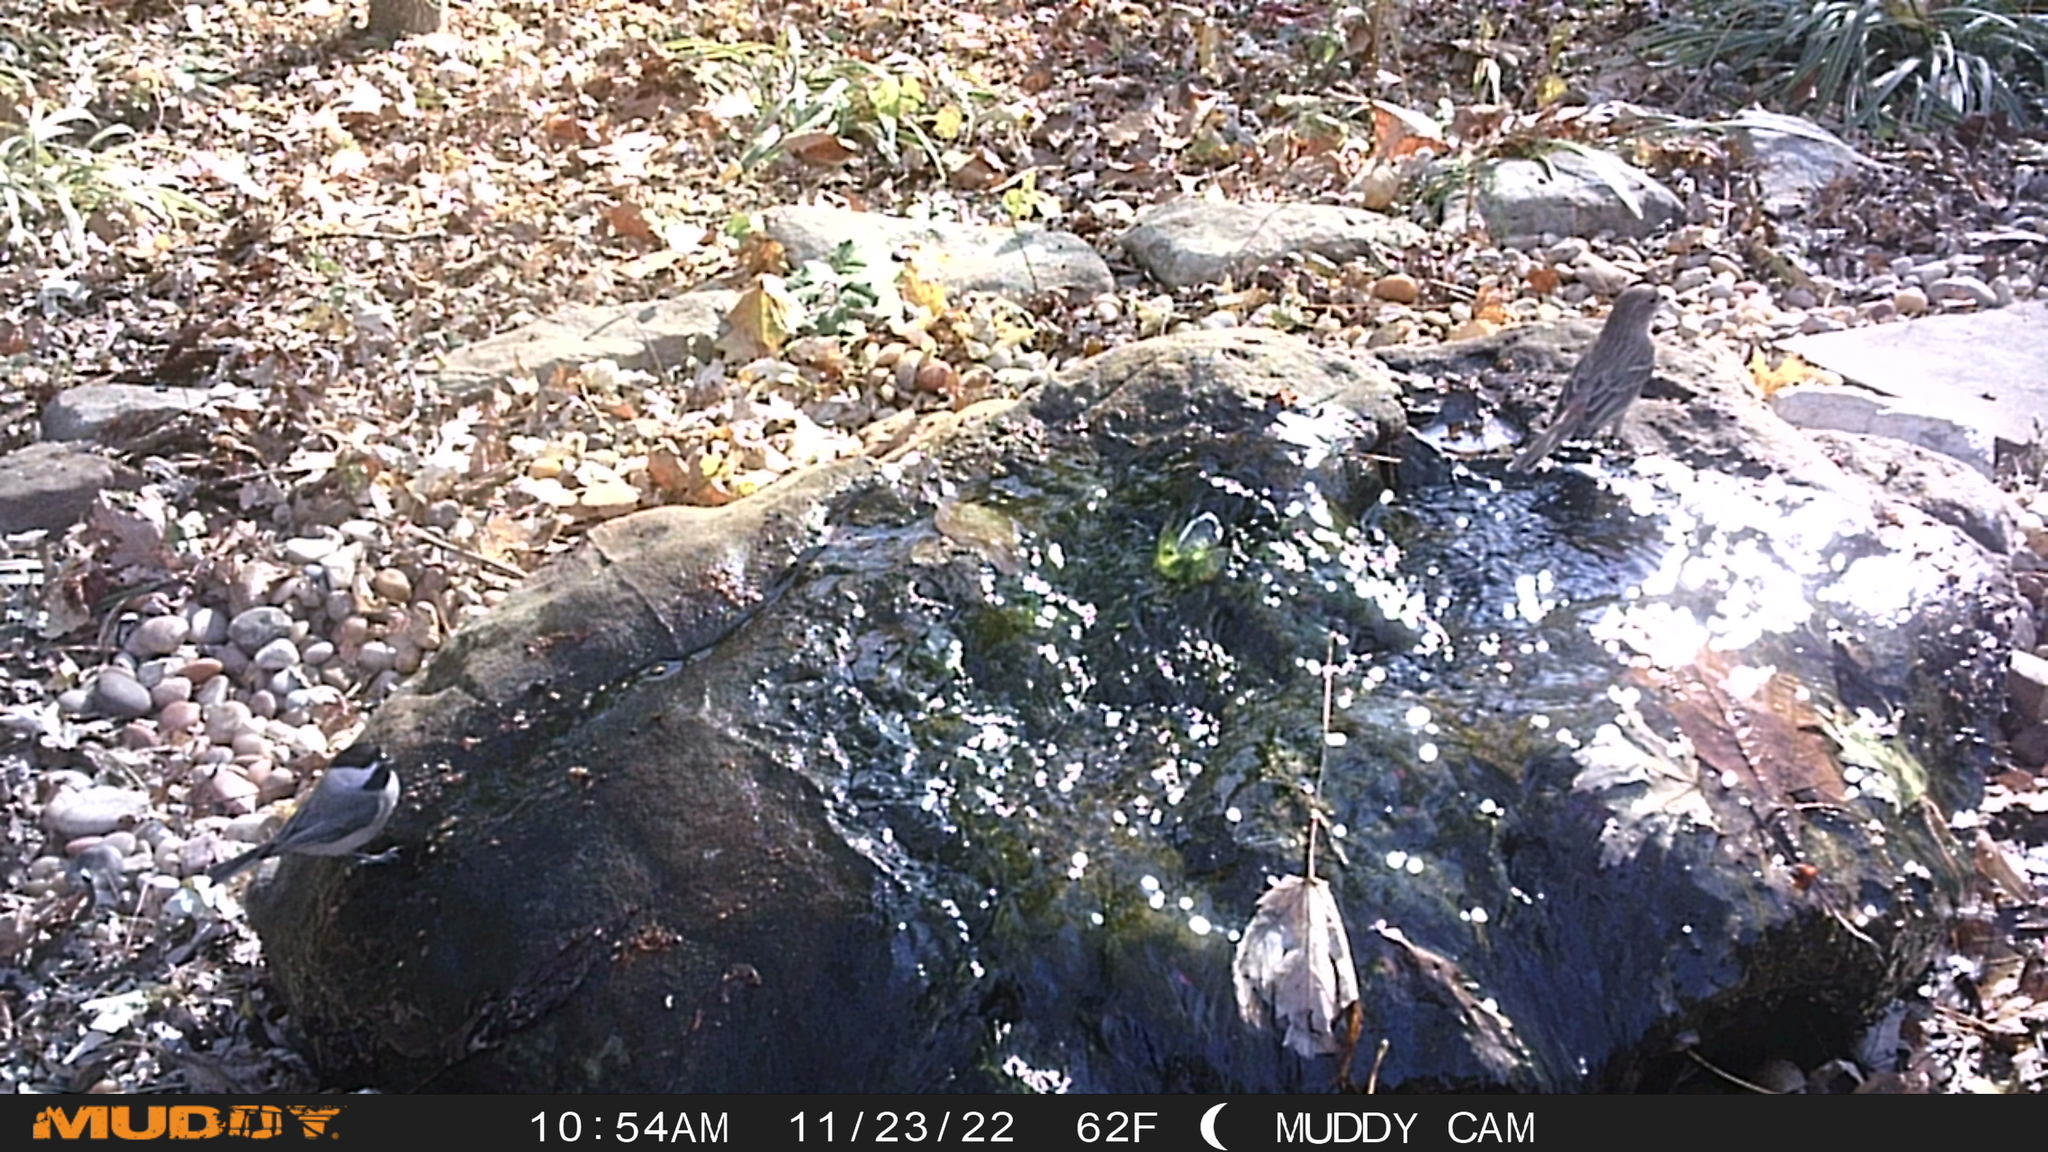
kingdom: Animalia
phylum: Chordata
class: Aves
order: Passeriformes
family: Paridae
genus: Poecile
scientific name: Poecile carolinensis
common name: Carolina chickadee
